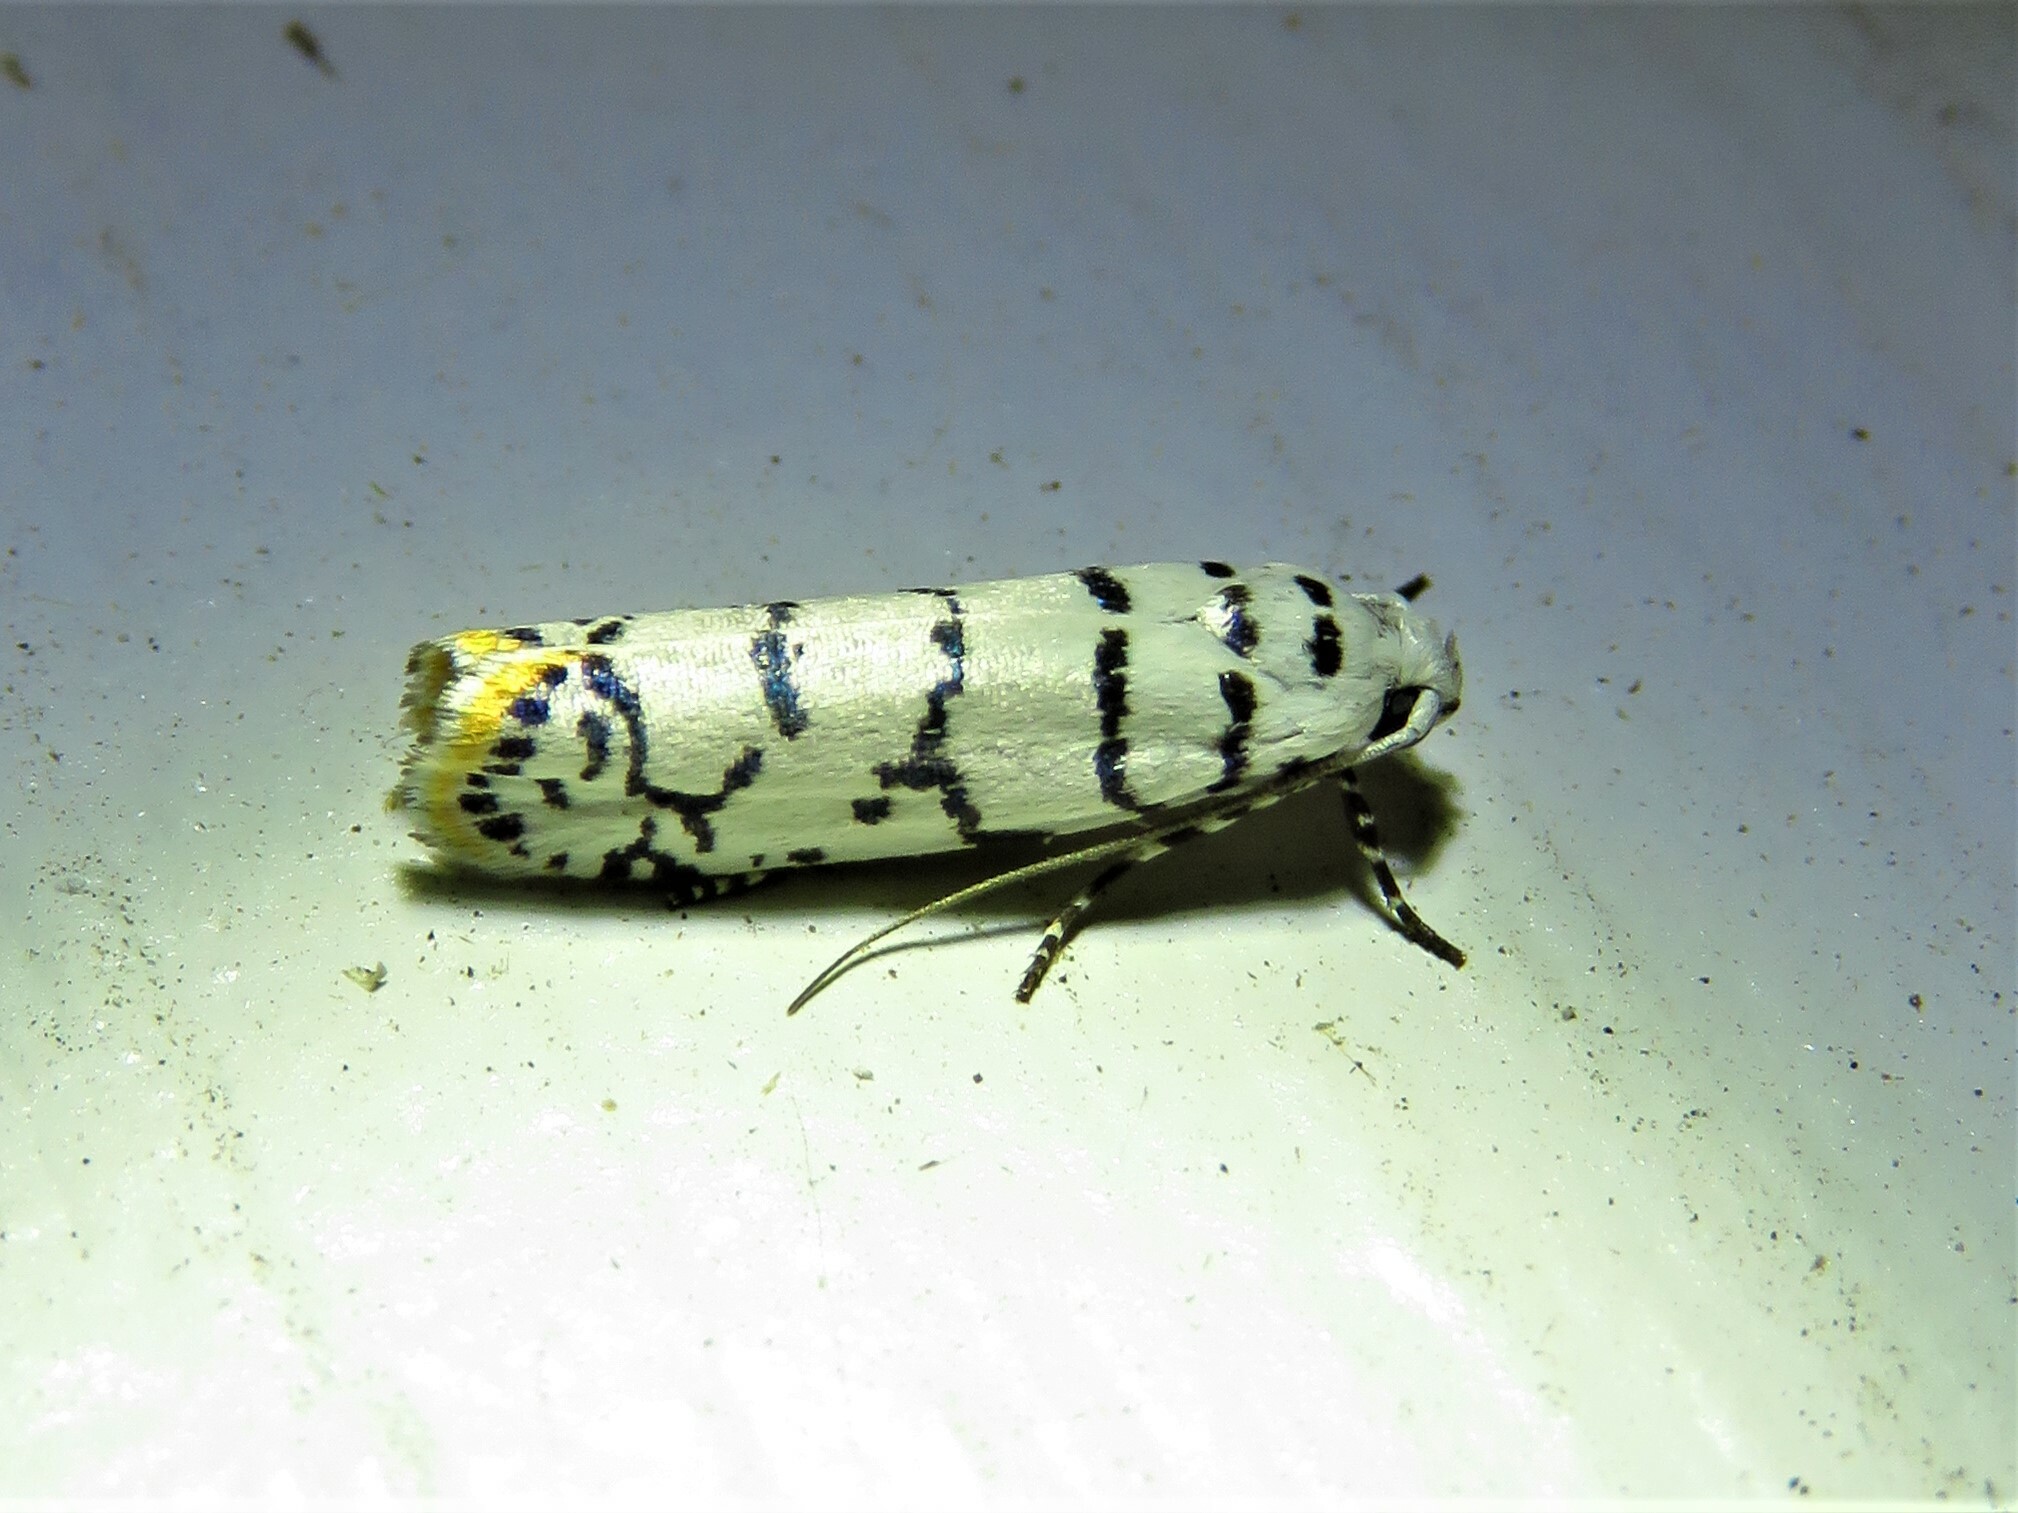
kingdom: Animalia
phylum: Arthropoda
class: Insecta
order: Lepidoptera
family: Ethmiidae
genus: Ethmia
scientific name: Ethmia delliella
